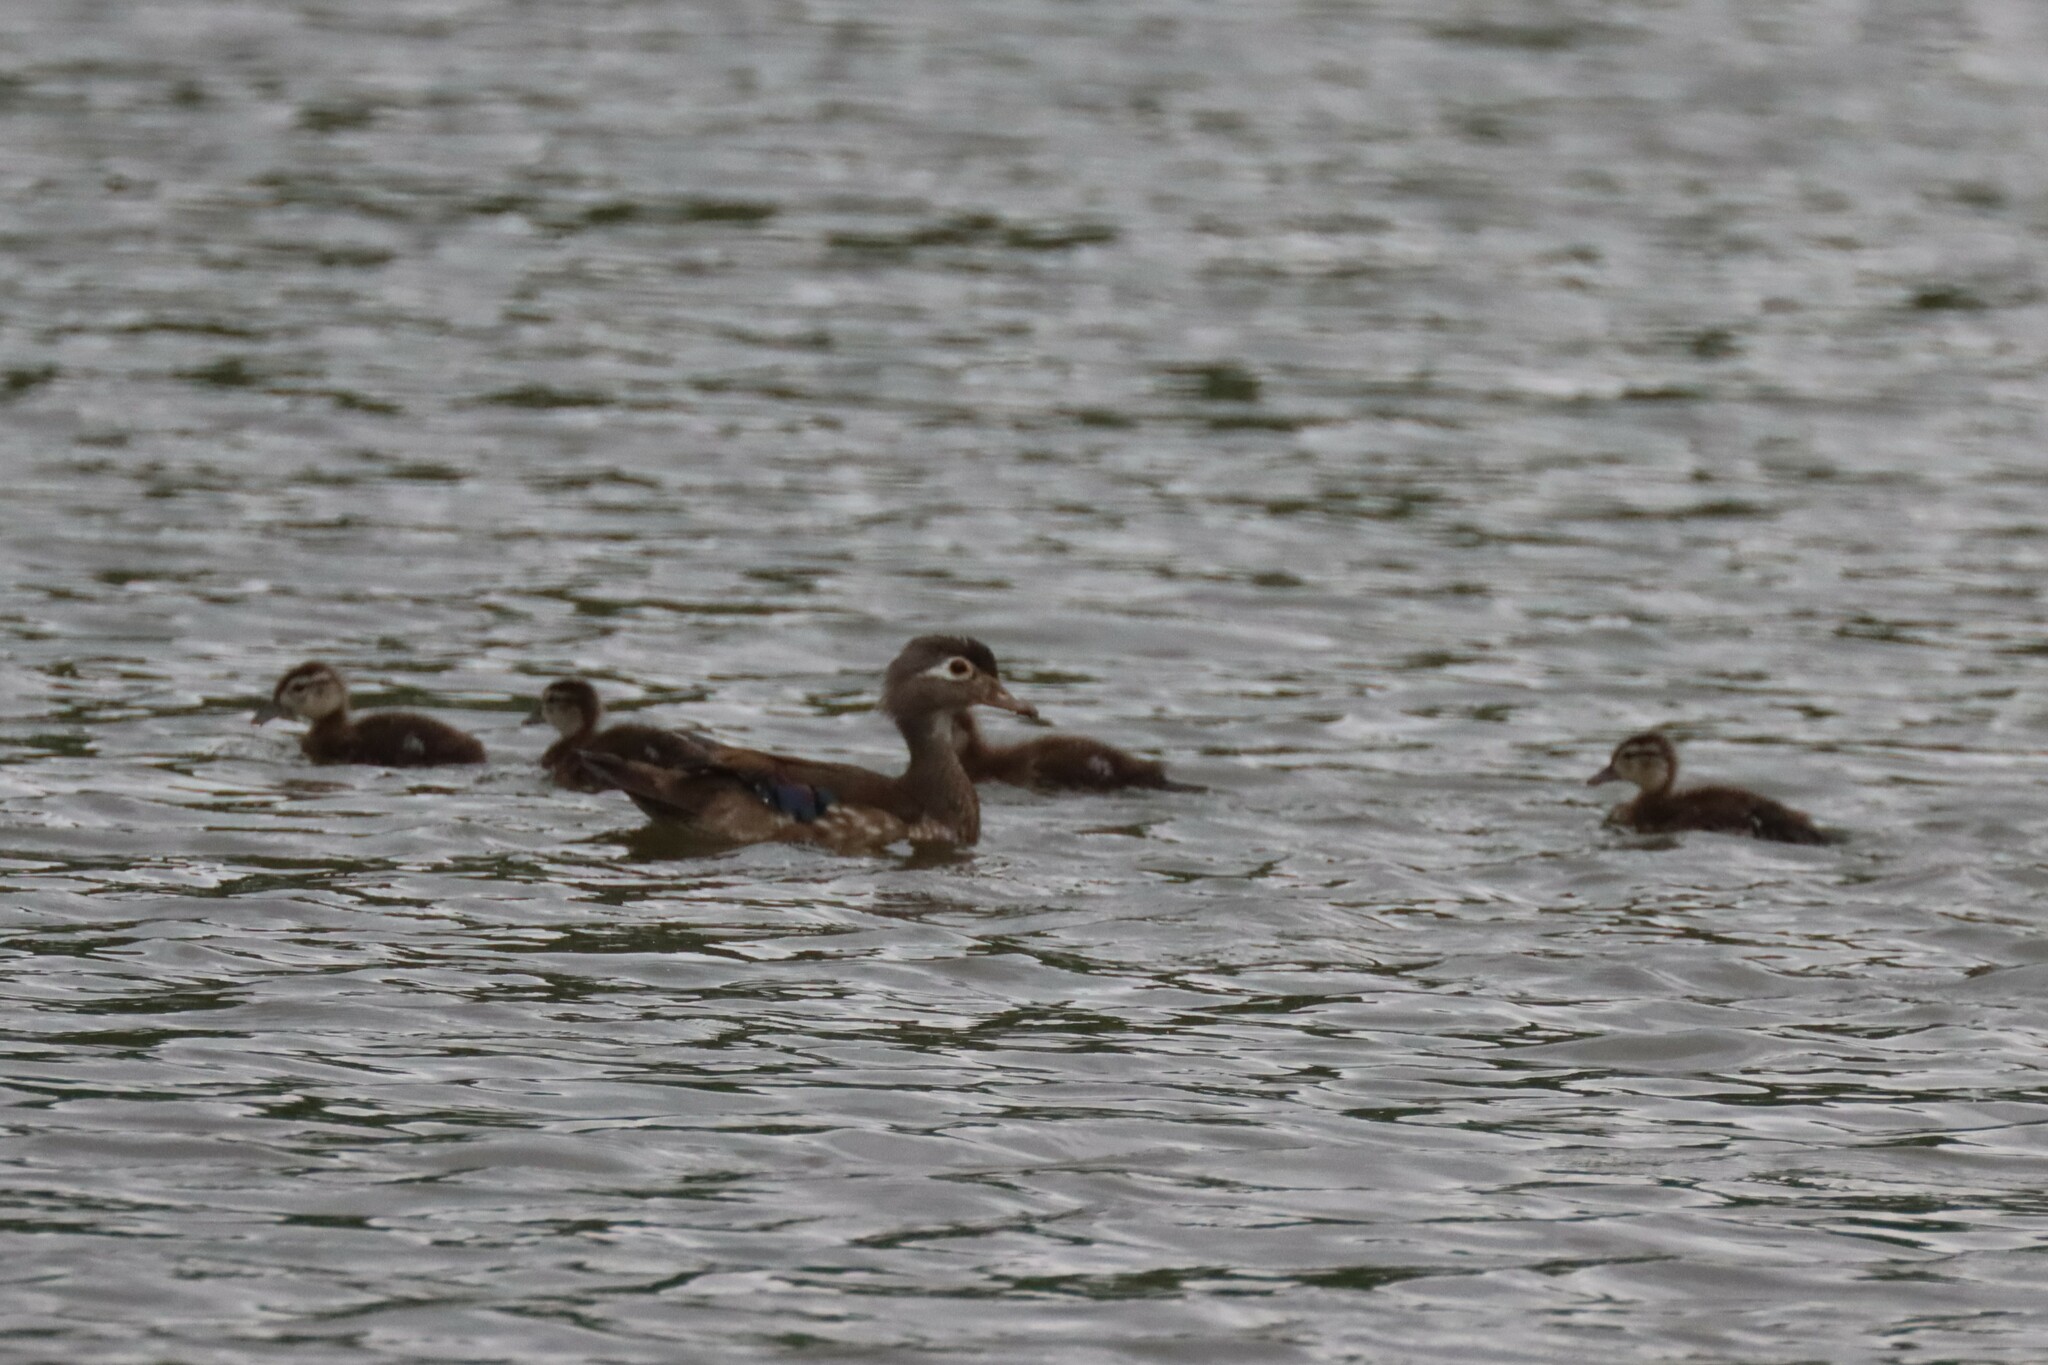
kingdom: Animalia
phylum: Chordata
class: Aves
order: Anseriformes
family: Anatidae
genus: Aix
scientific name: Aix sponsa
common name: Wood duck
